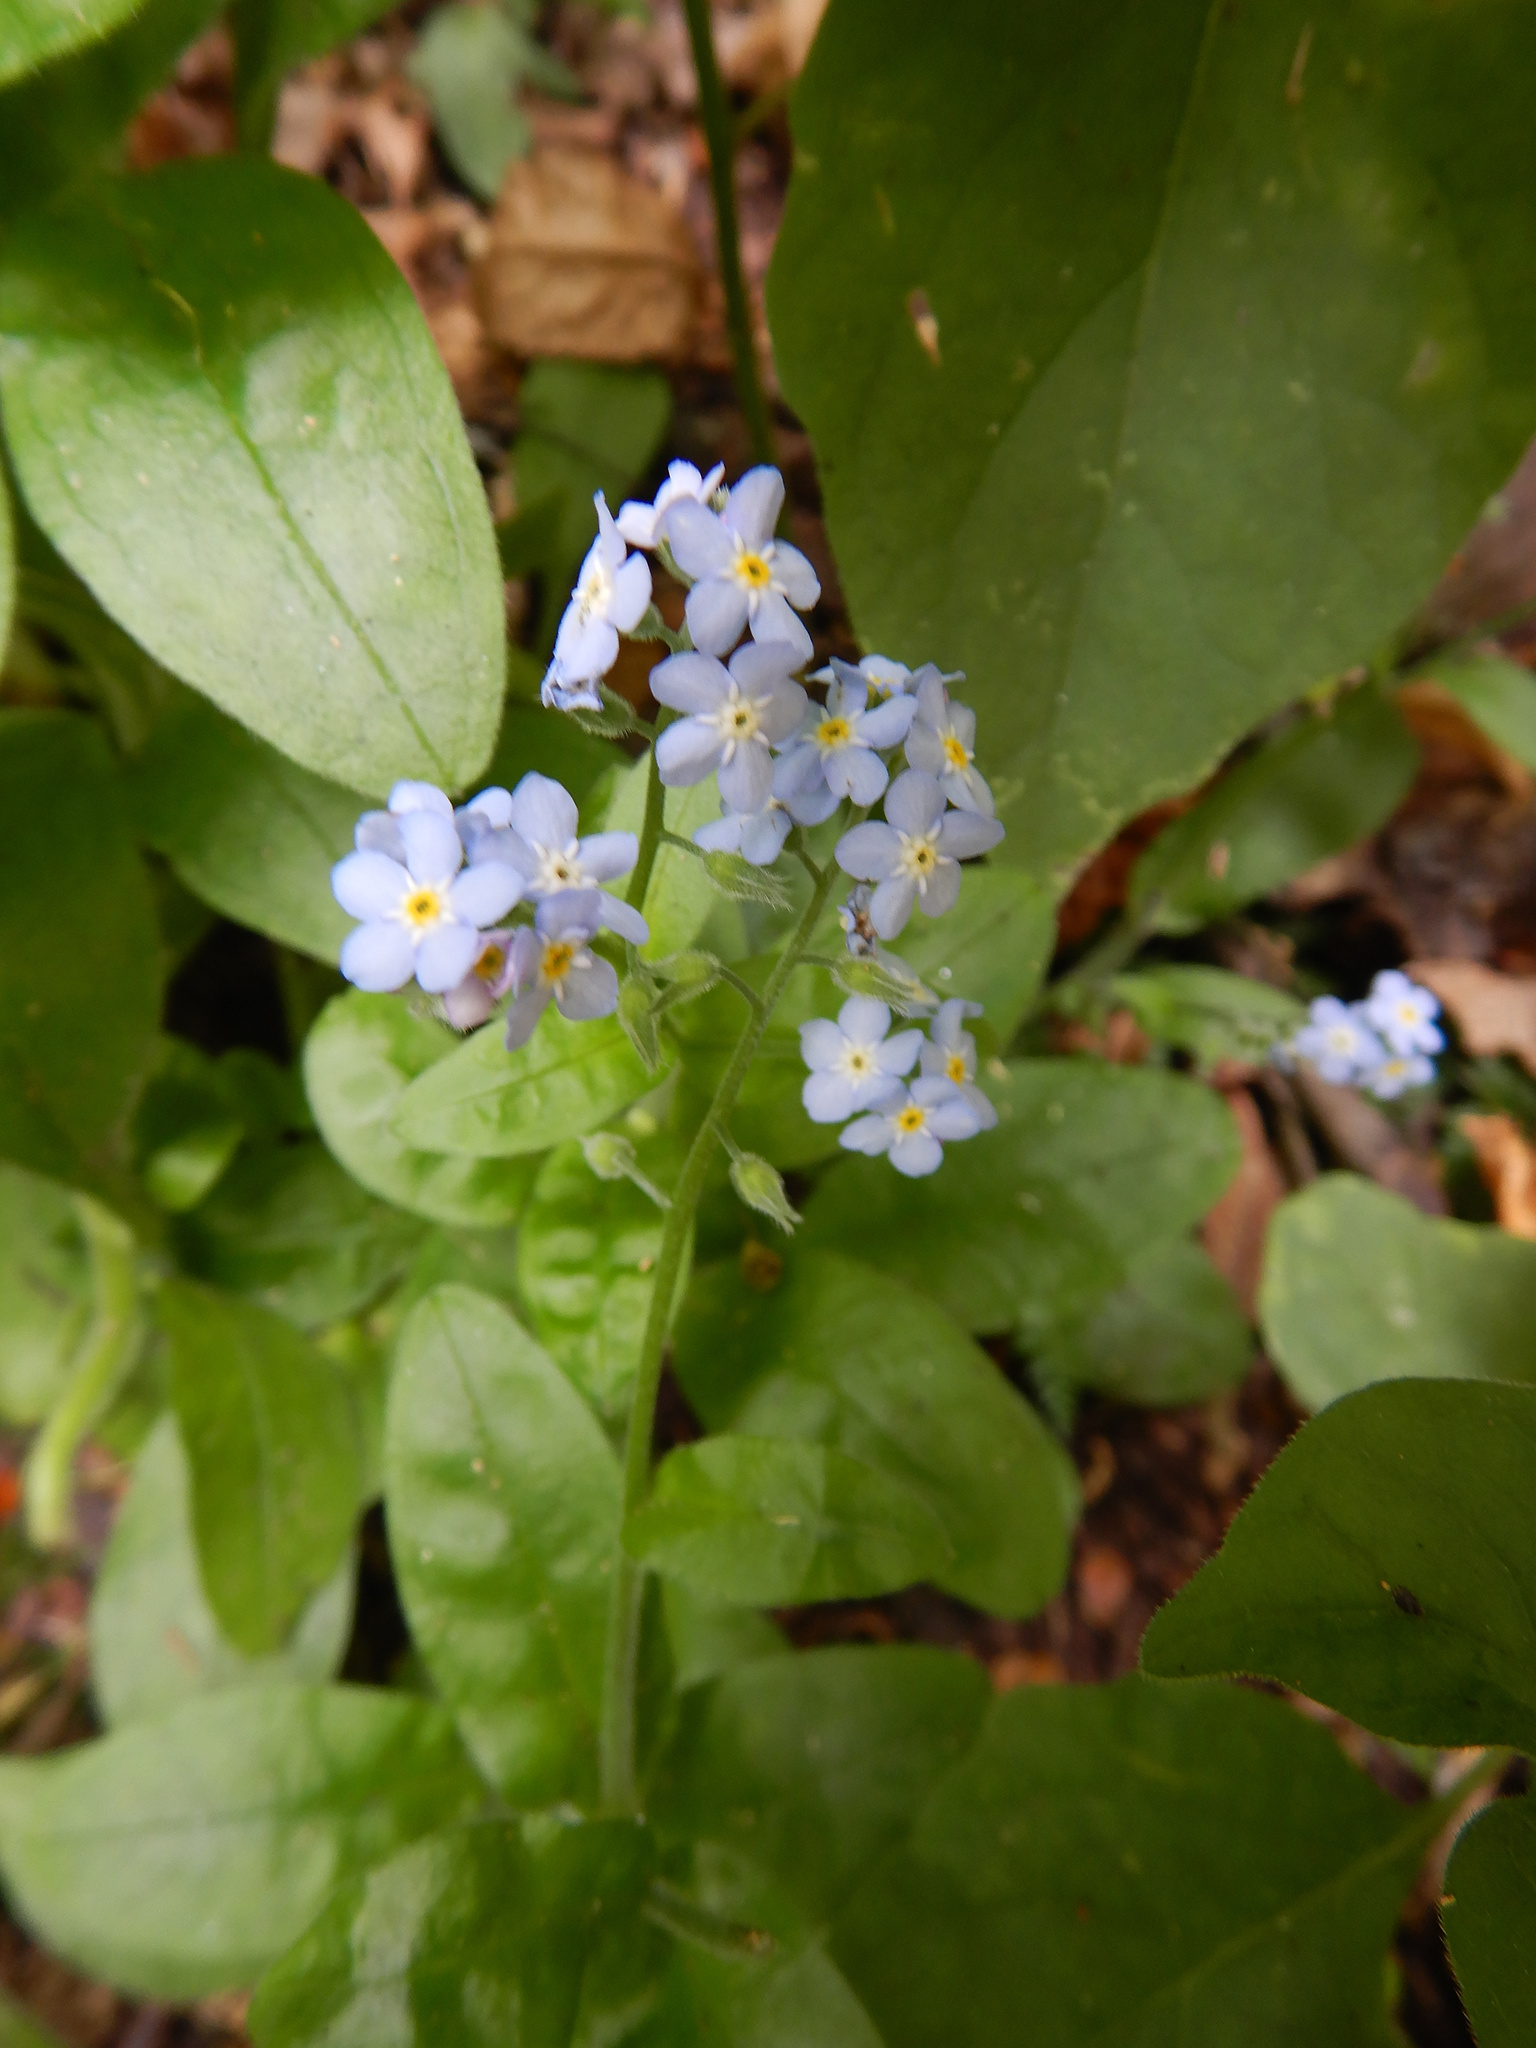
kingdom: Plantae
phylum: Tracheophyta
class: Magnoliopsida
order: Boraginales
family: Boraginaceae
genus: Myosotis
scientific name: Myosotis sylvatica
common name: Wood forget-me-not
